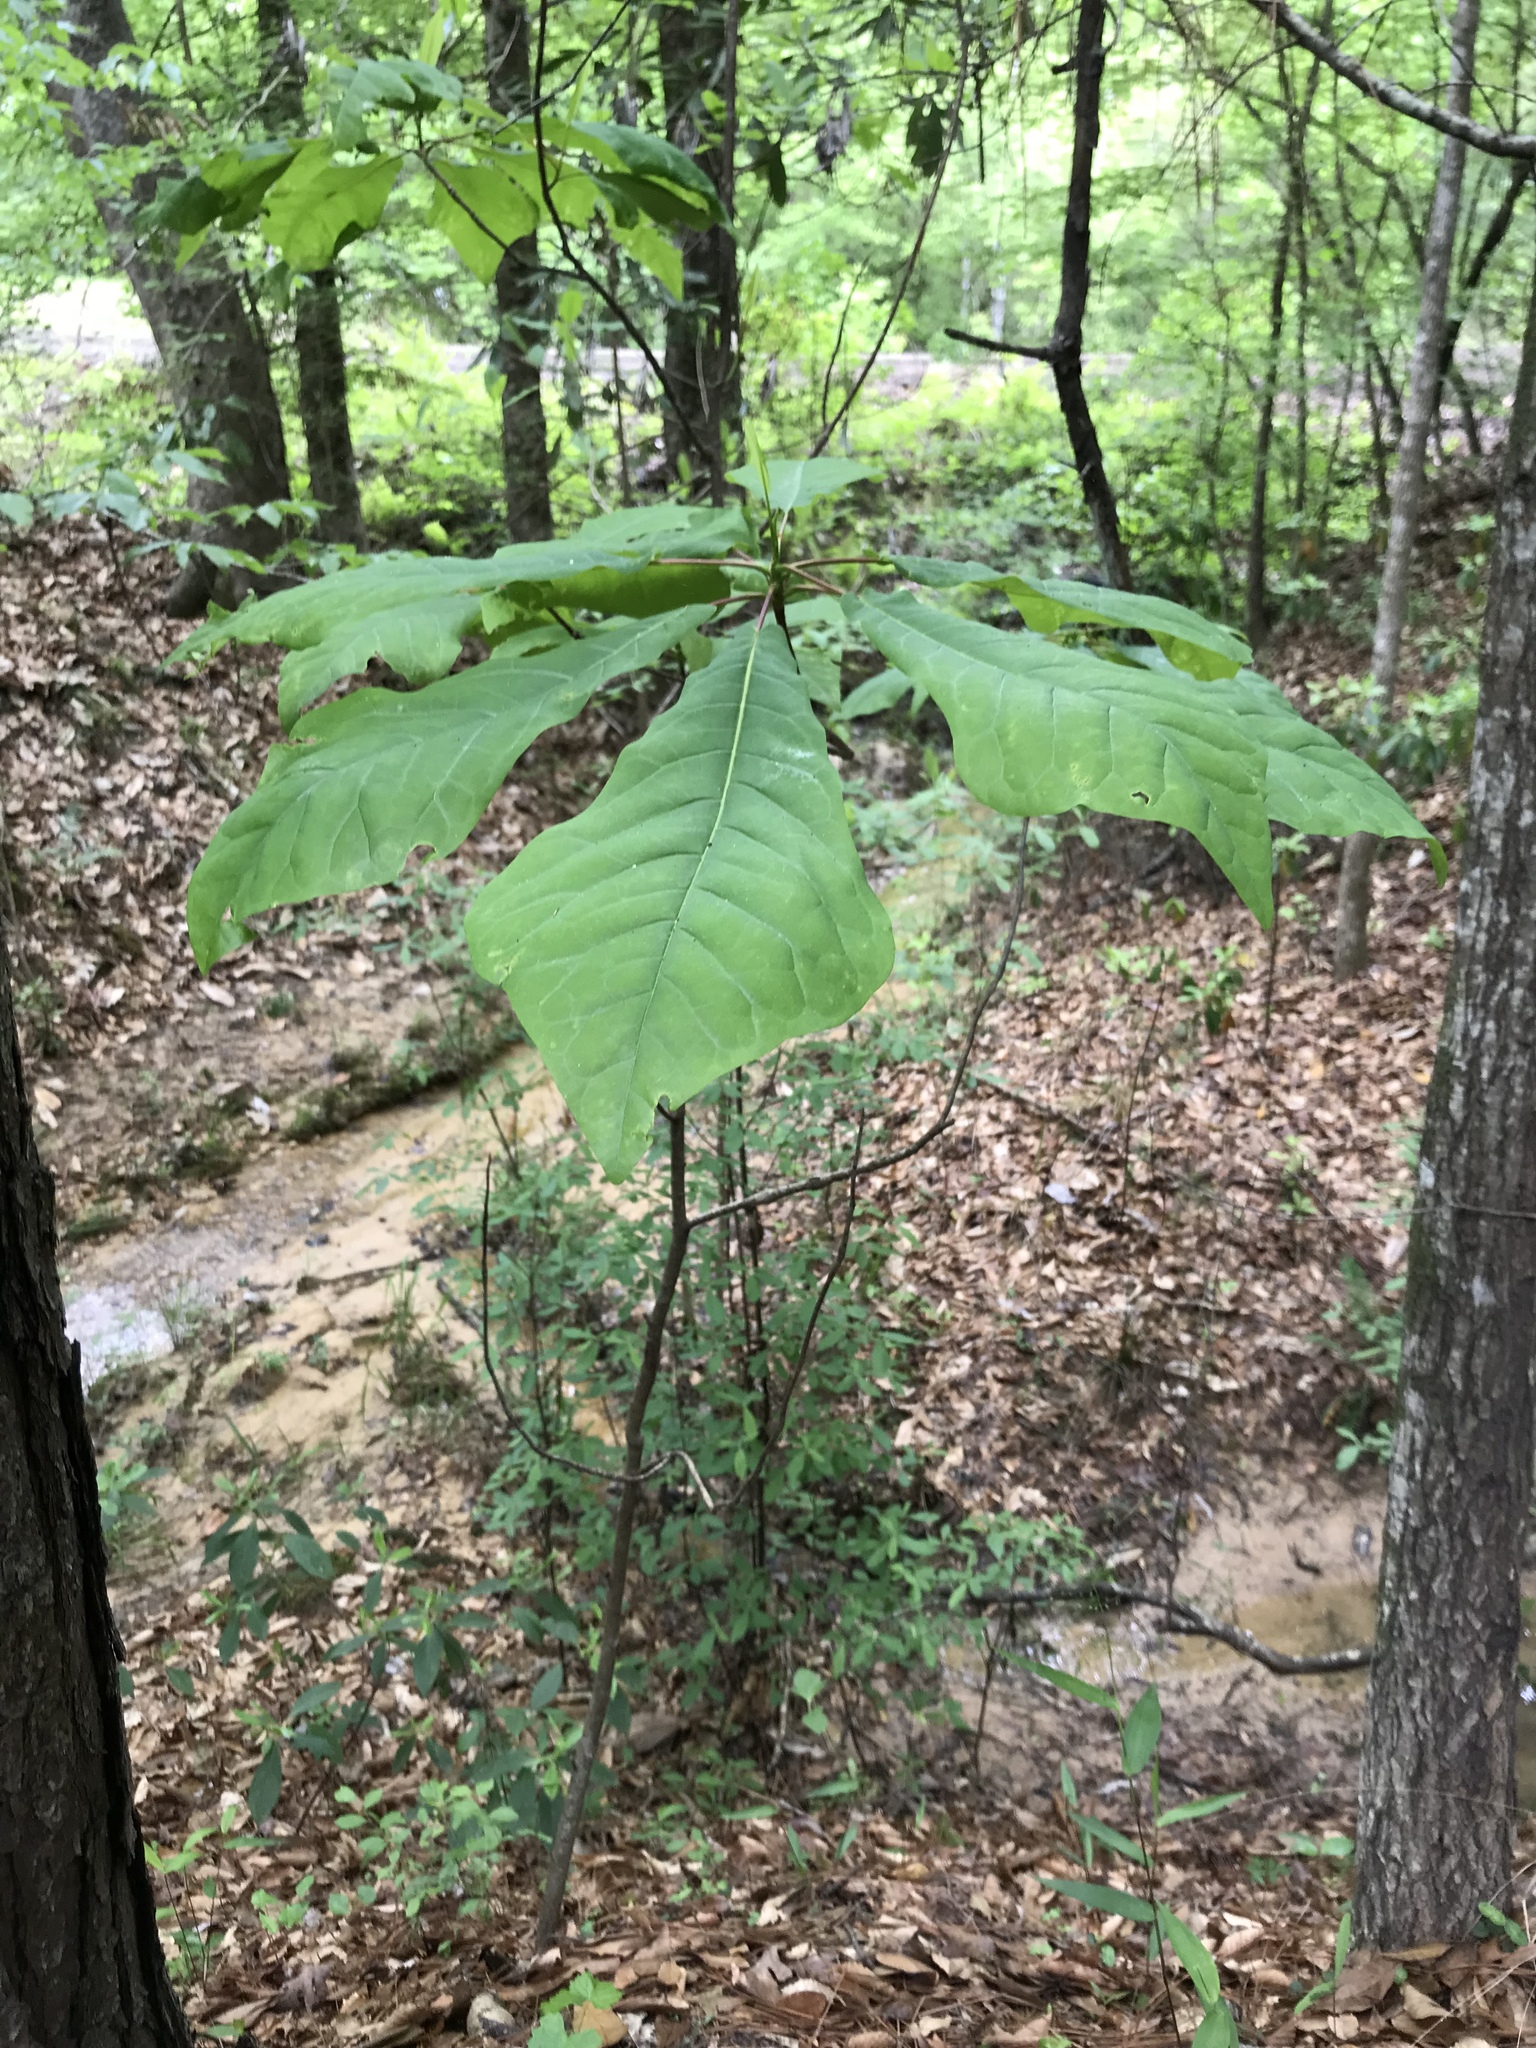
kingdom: Plantae
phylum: Tracheophyta
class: Magnoliopsida
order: Magnoliales
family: Magnoliaceae
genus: Magnolia
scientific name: Magnolia fraseri
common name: Fraser's magnolia
